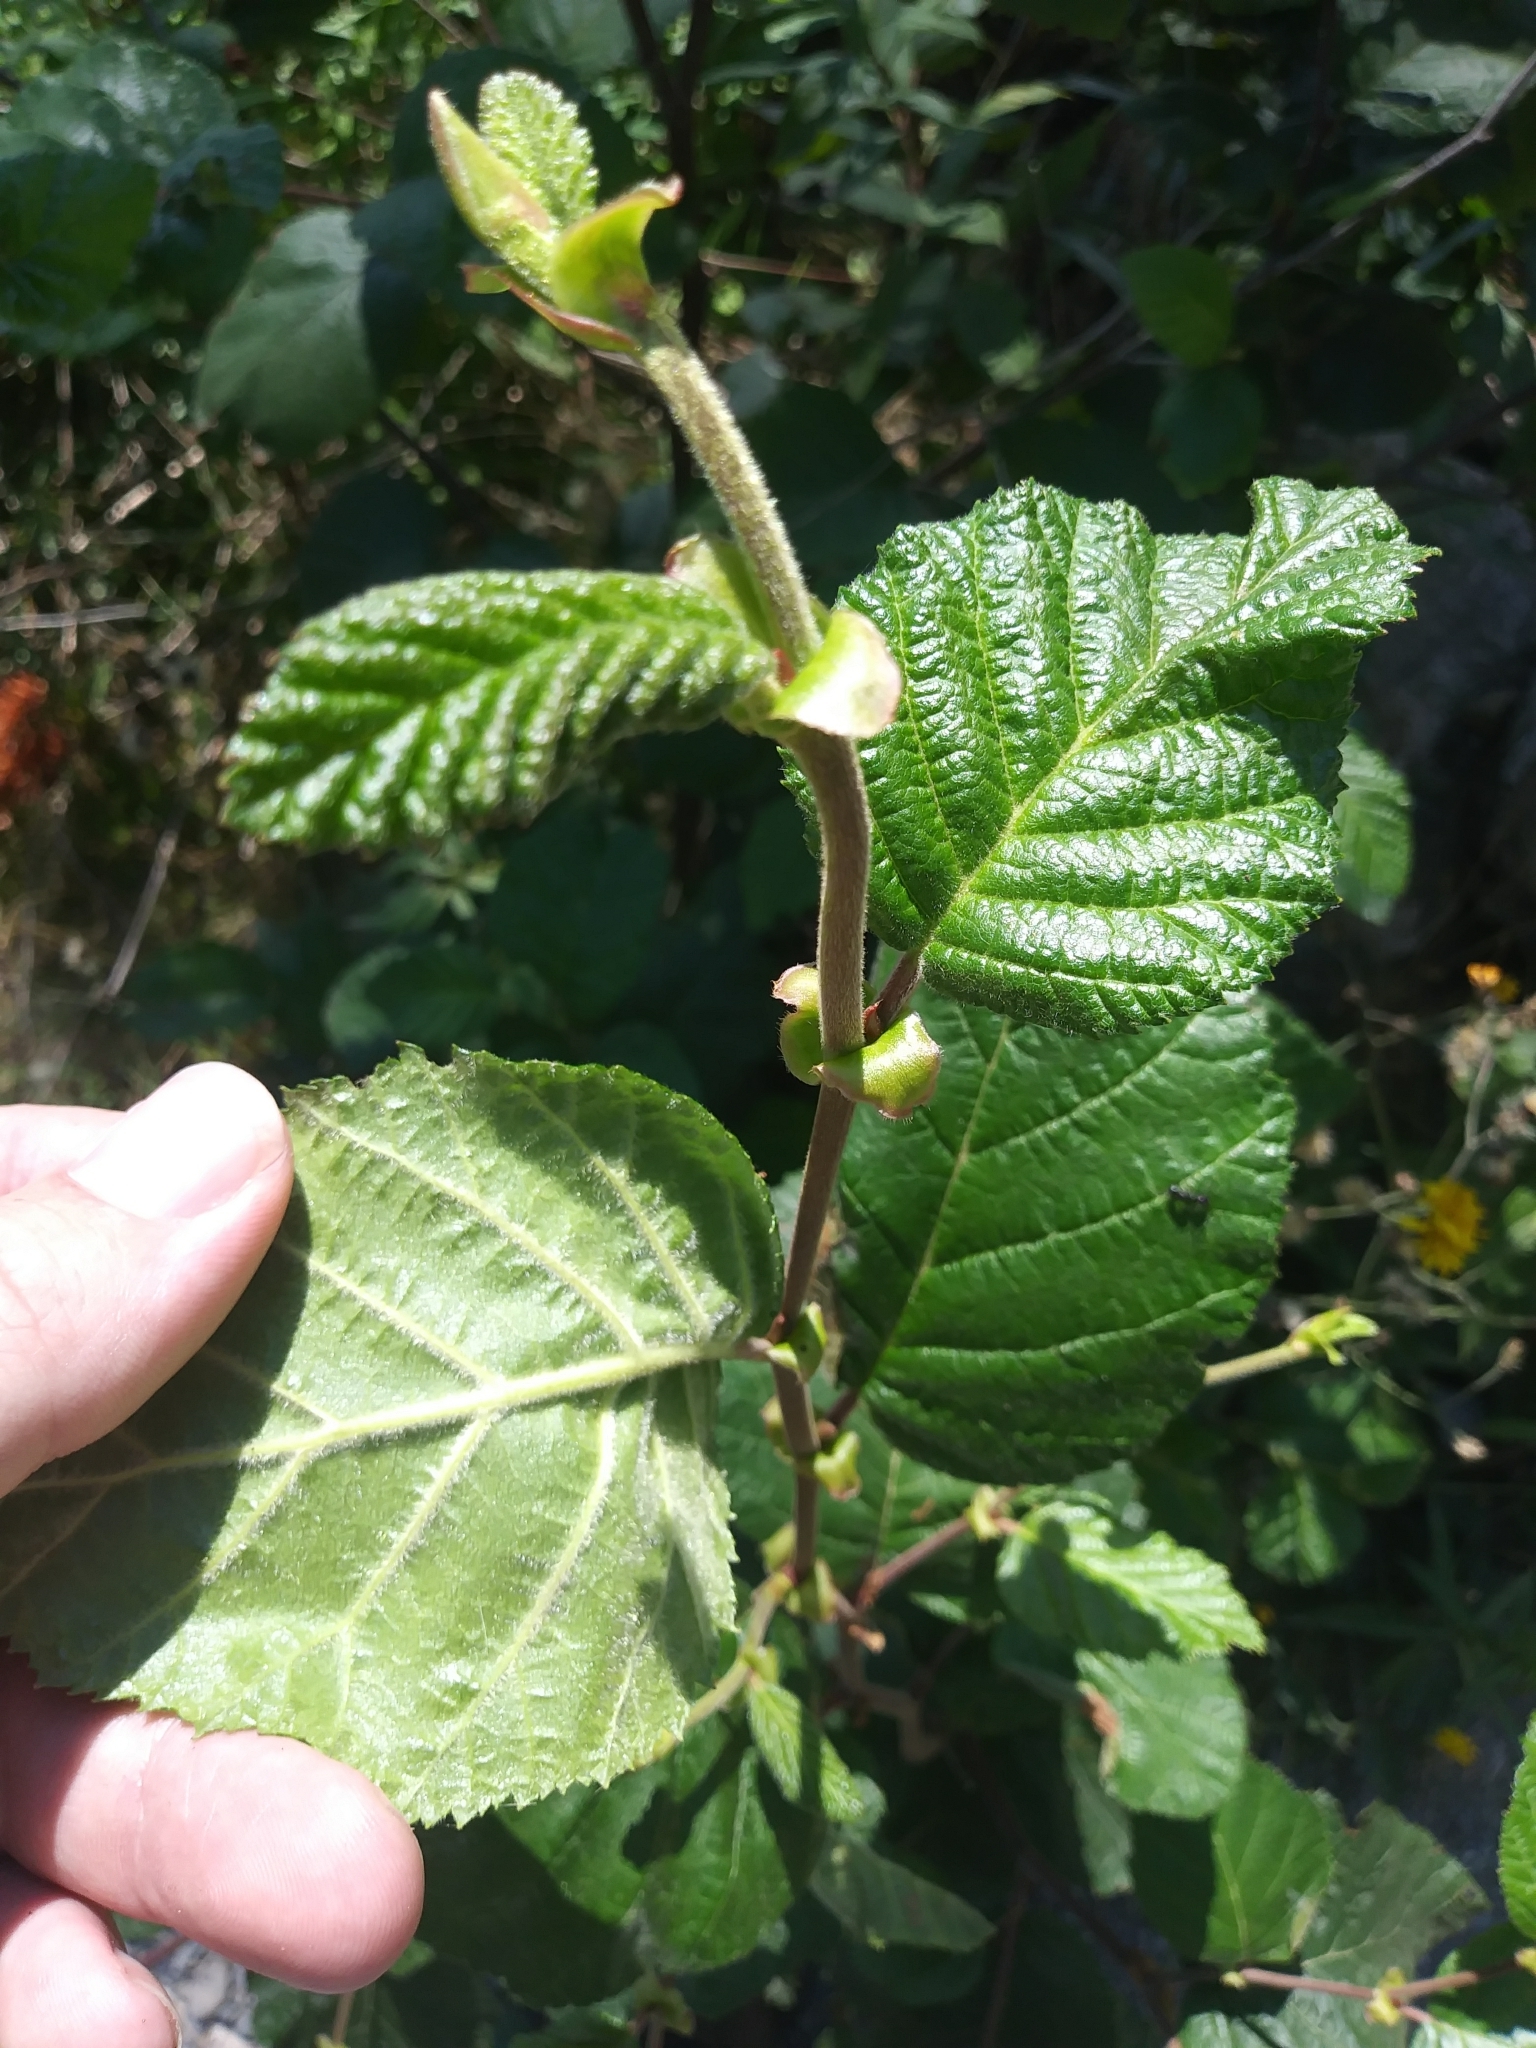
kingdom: Plantae
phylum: Tracheophyta
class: Magnoliopsida
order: Fagales
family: Betulaceae
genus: Alnus
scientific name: Alnus alnobetula
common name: Green alder
